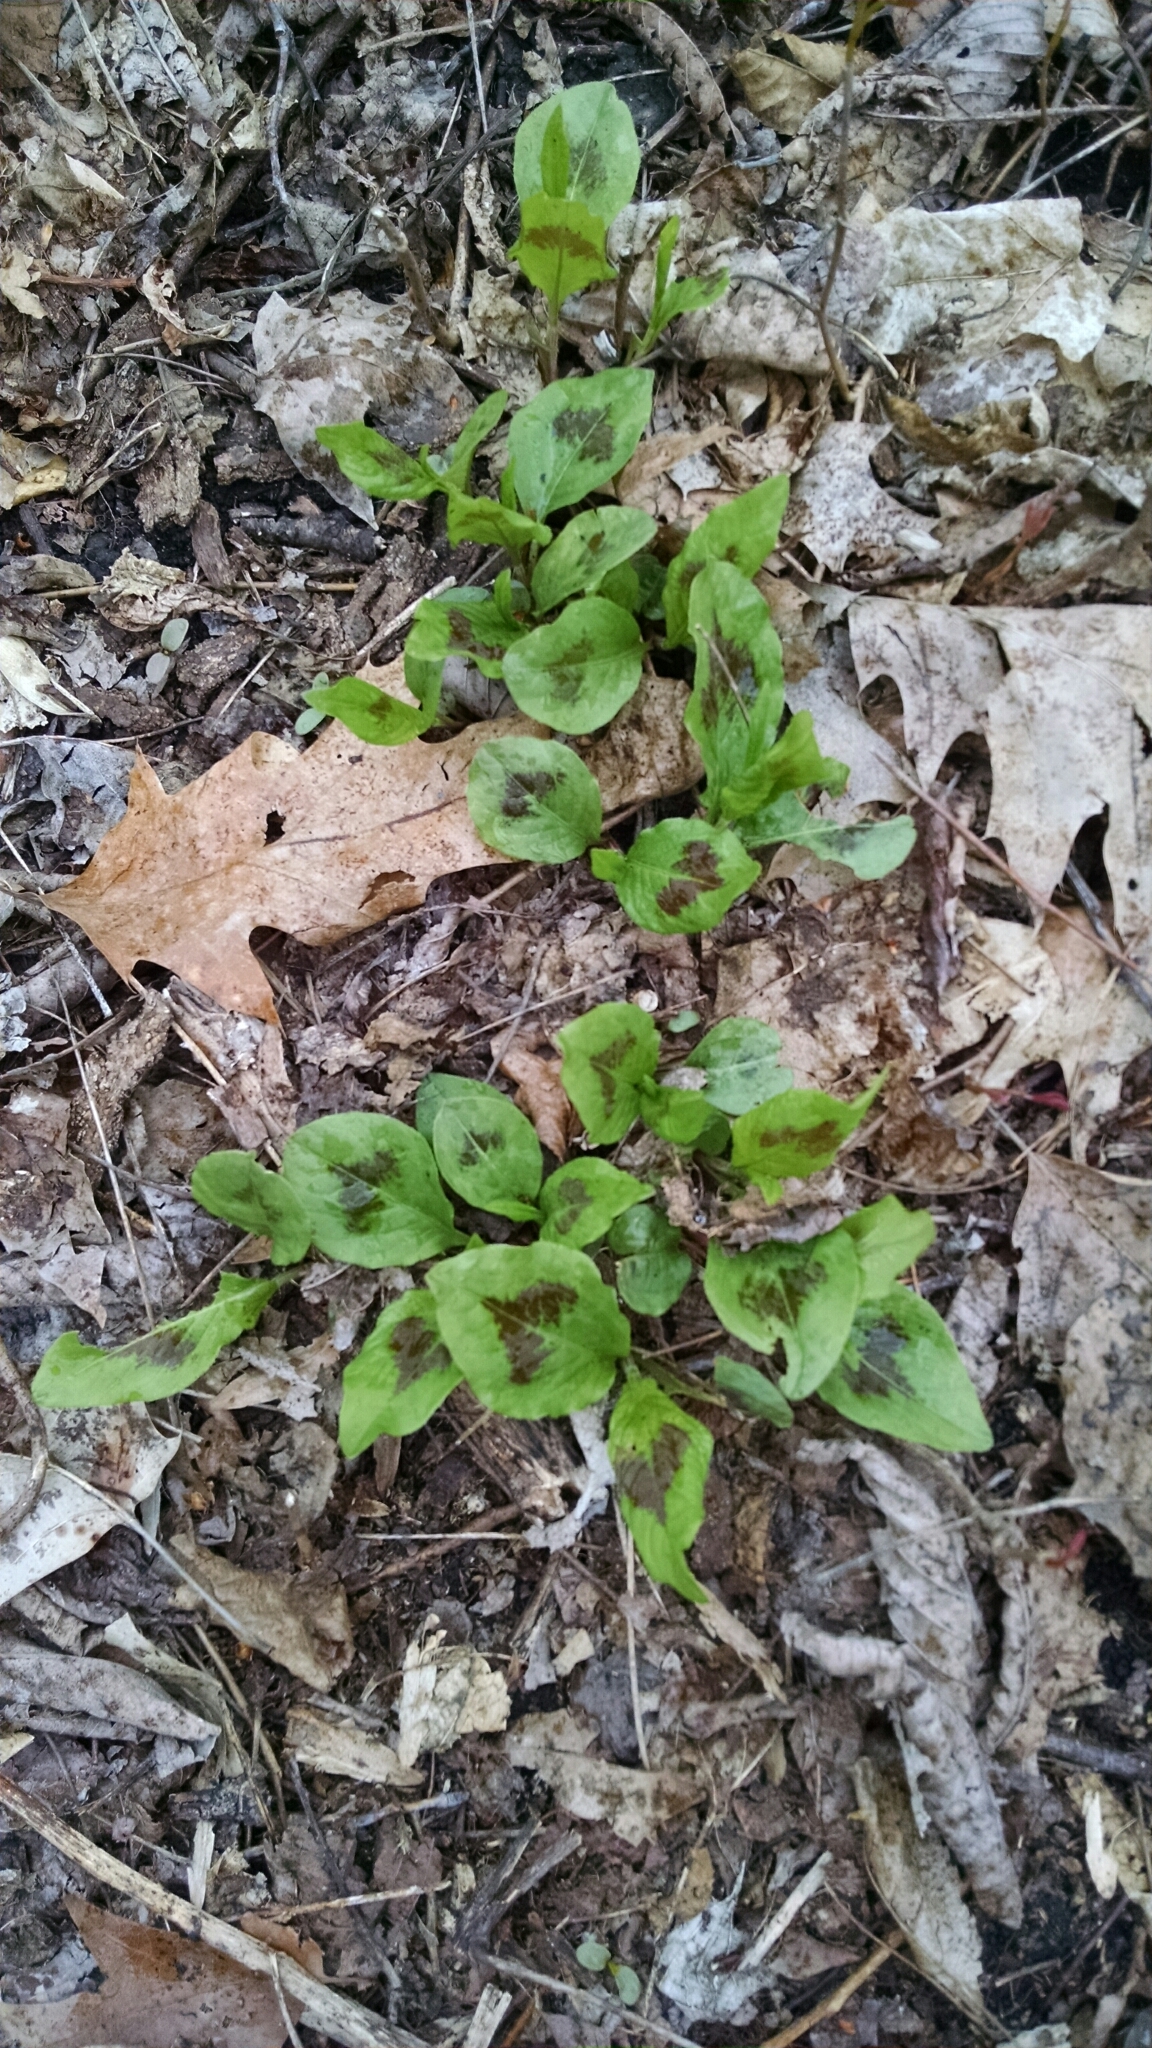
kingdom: Plantae
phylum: Tracheophyta
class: Magnoliopsida
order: Caryophyllales
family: Polygonaceae
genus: Persicaria
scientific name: Persicaria virginiana
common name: Jumpseed
